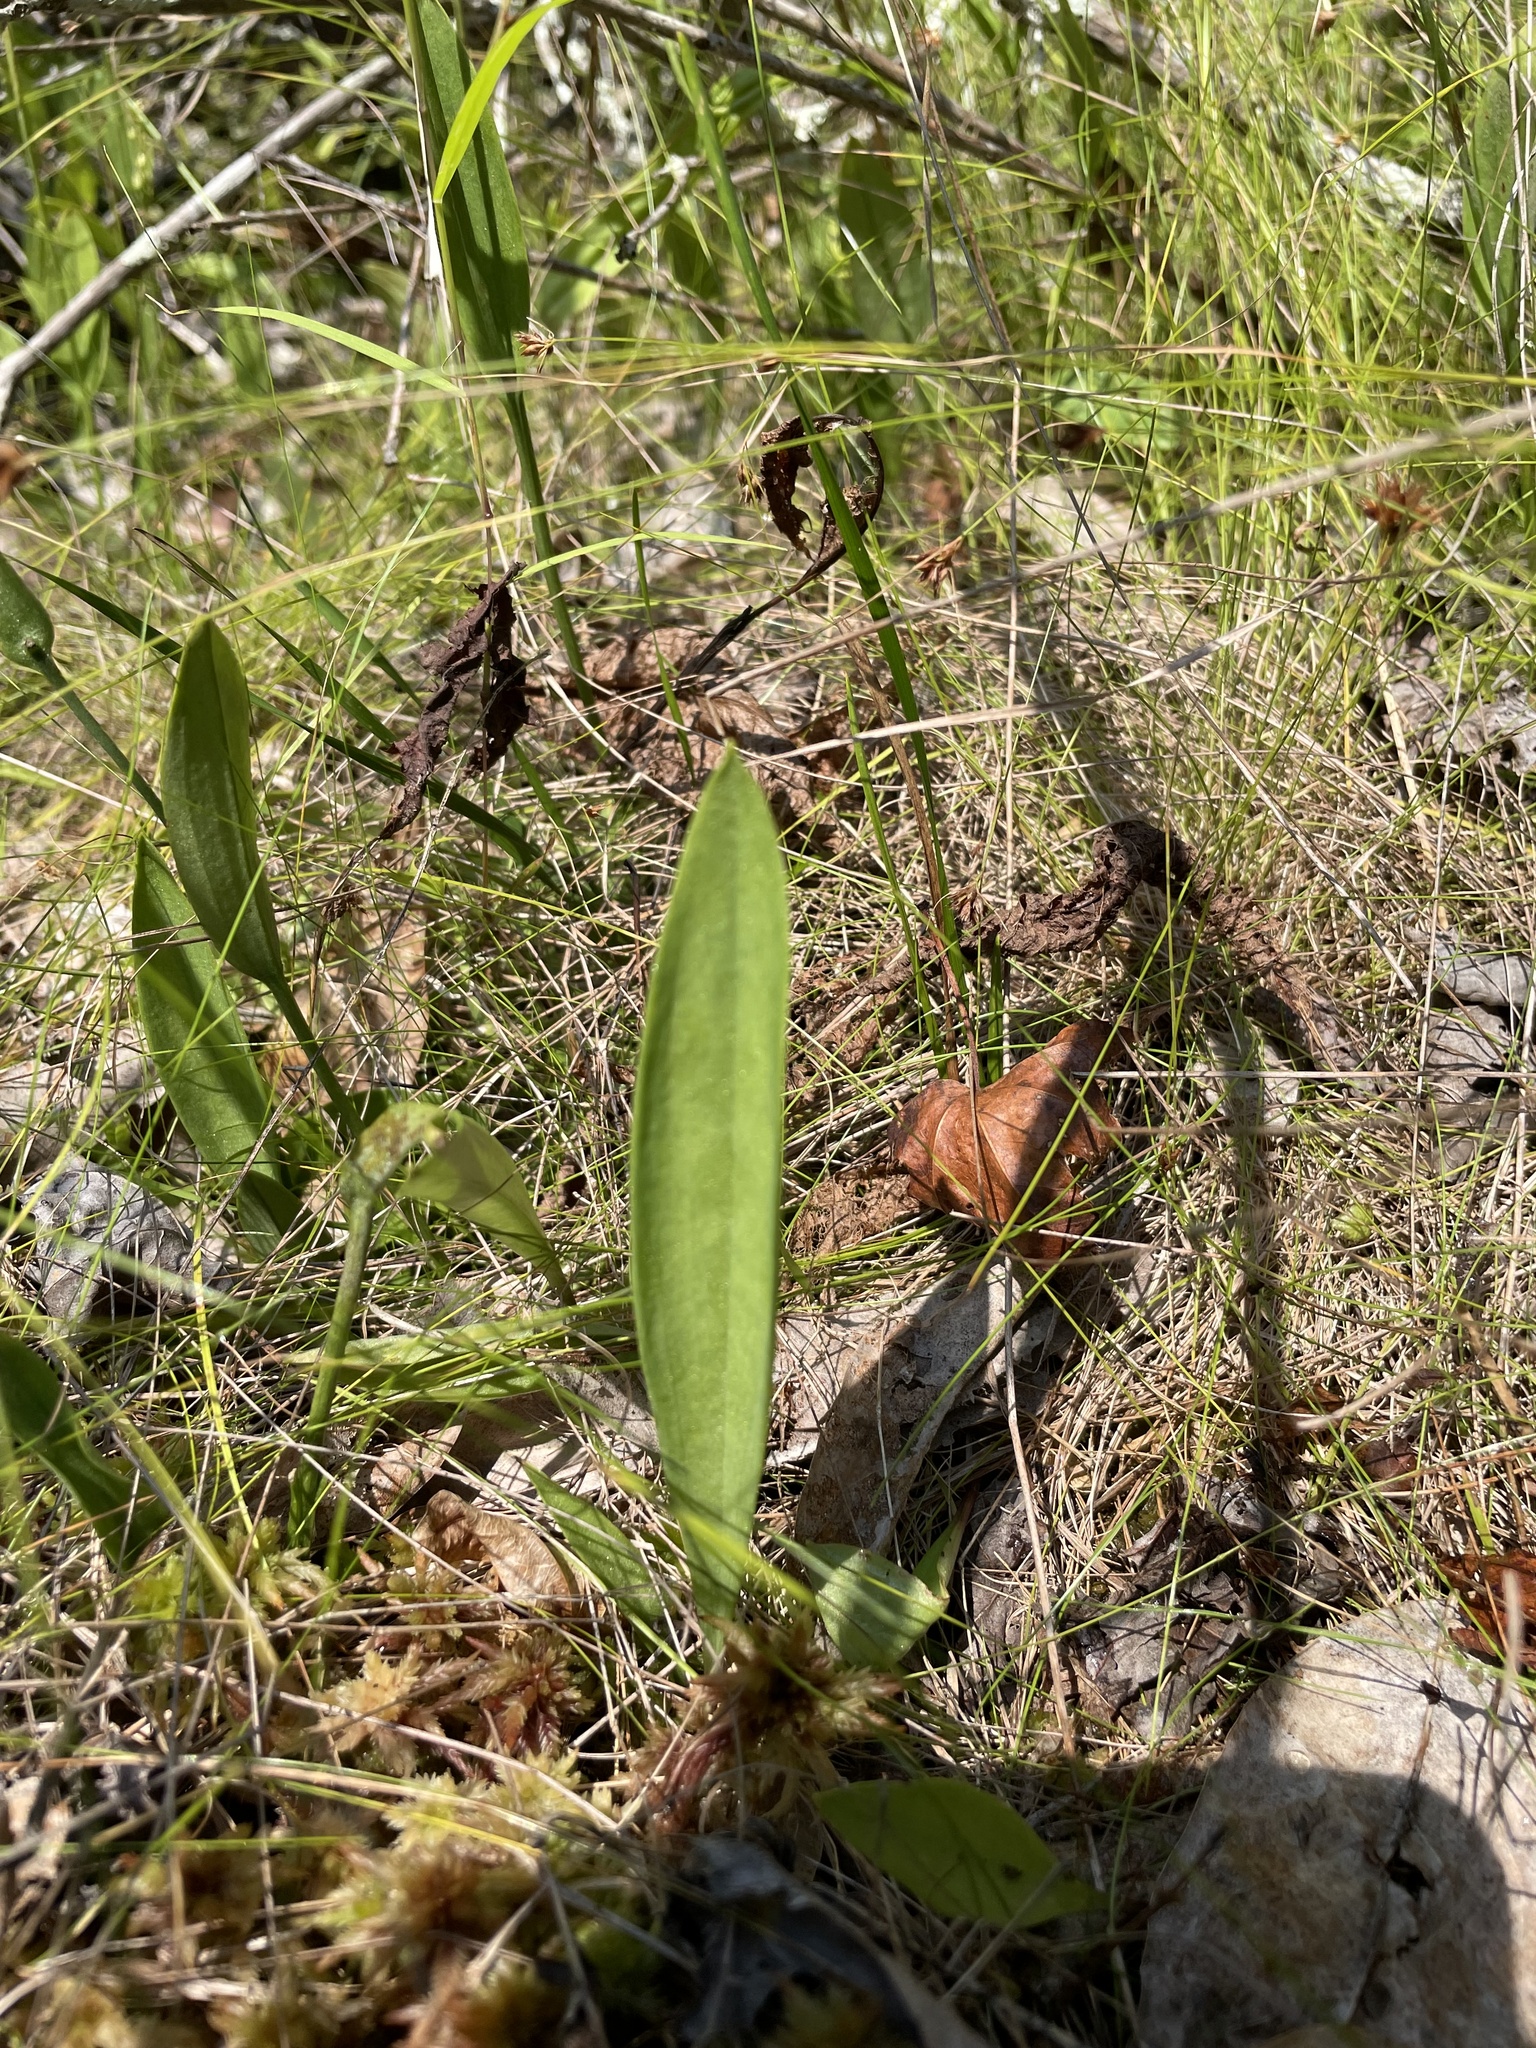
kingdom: Plantae
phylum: Tracheophyta
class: Liliopsida
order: Asparagales
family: Orchidaceae
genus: Pogonia
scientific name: Pogonia ophioglossoides
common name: Rose pogonia
